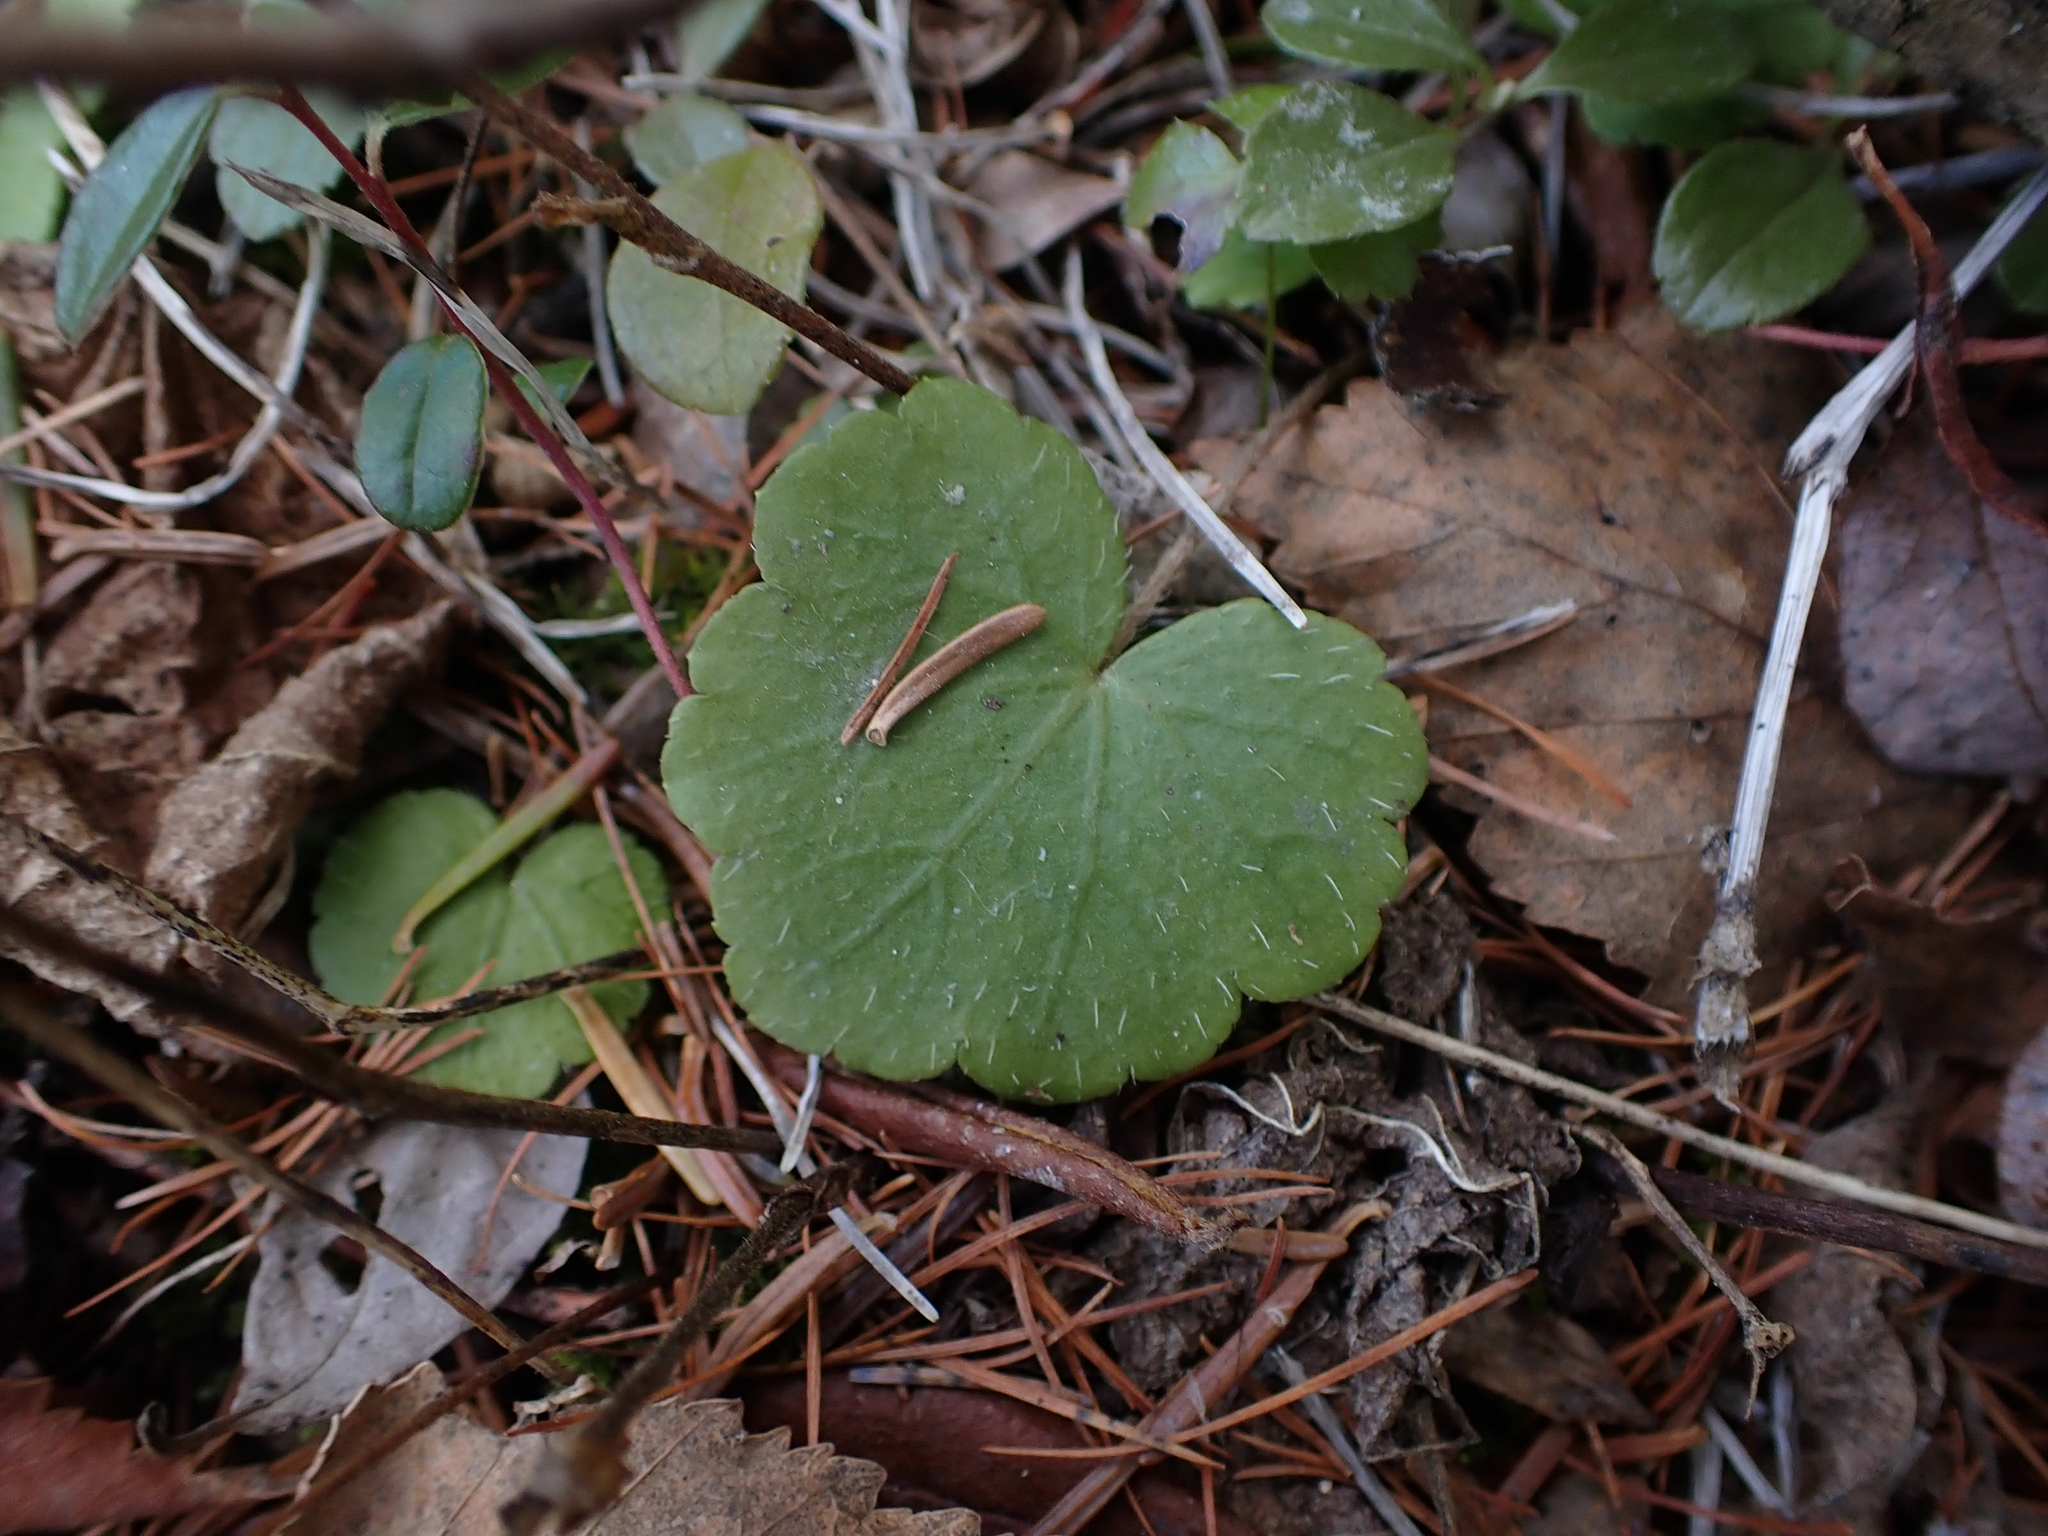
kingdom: Plantae
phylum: Tracheophyta
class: Magnoliopsida
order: Saxifragales
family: Saxifragaceae
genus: Mitella
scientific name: Mitella nuda
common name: Bare-stemmed bishop's-cap
